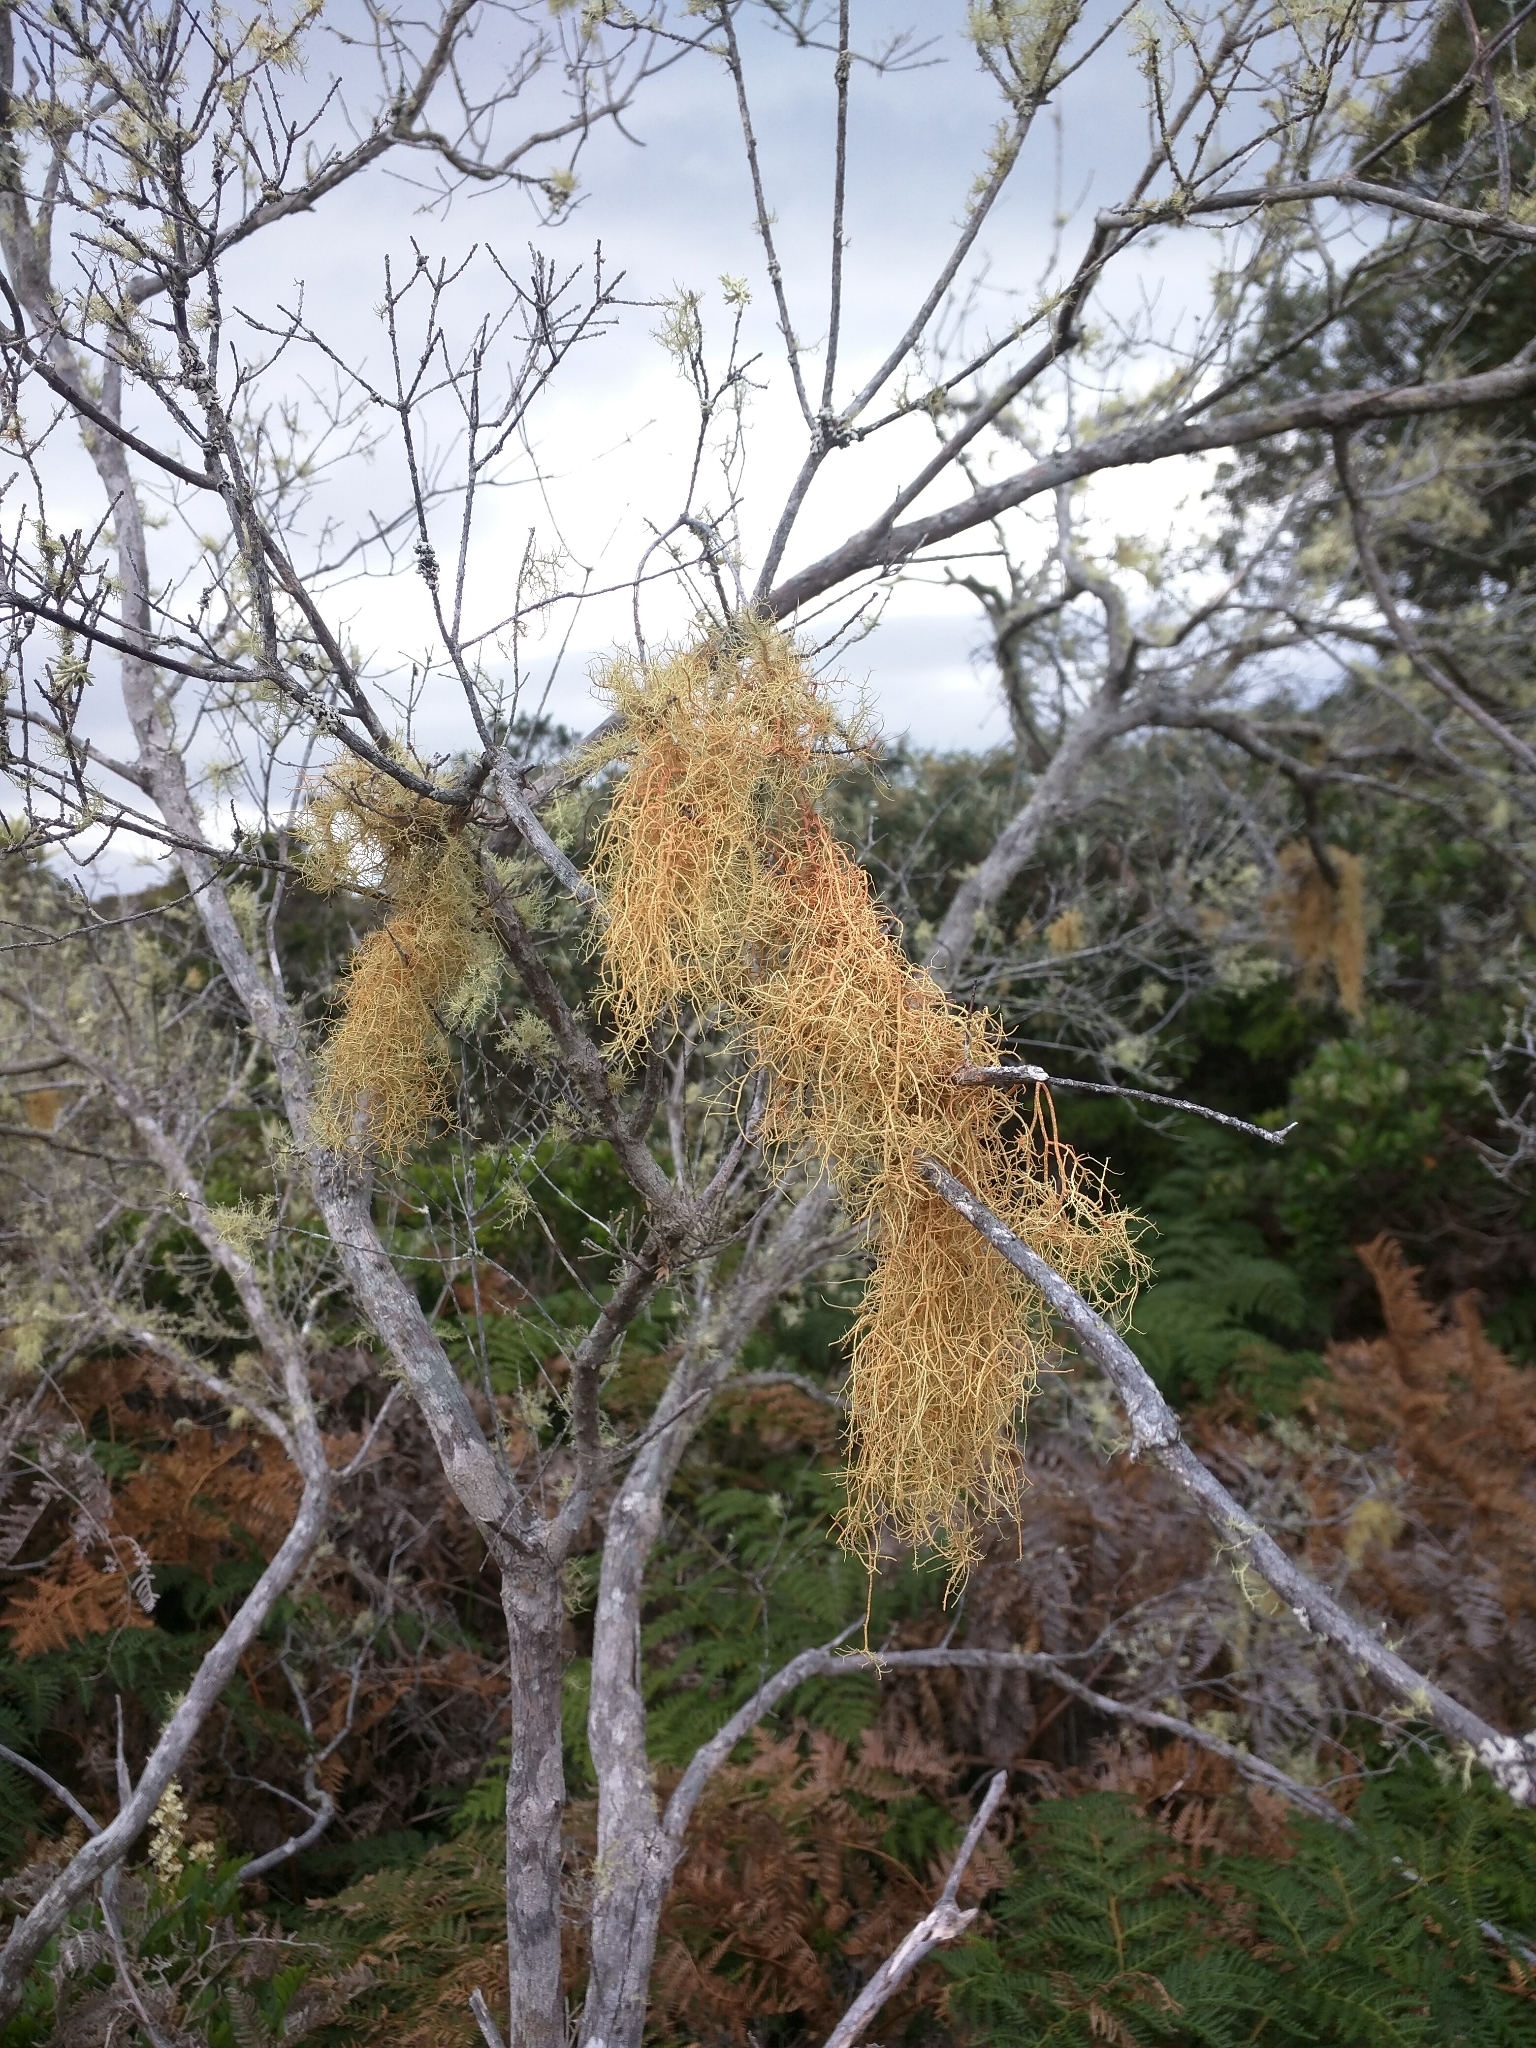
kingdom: Fungi
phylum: Ascomycota
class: Lecanoromycetes
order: Lecanorales
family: Parmeliaceae
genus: Usnea
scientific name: Usnea rubicunda
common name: Red beard lichen
